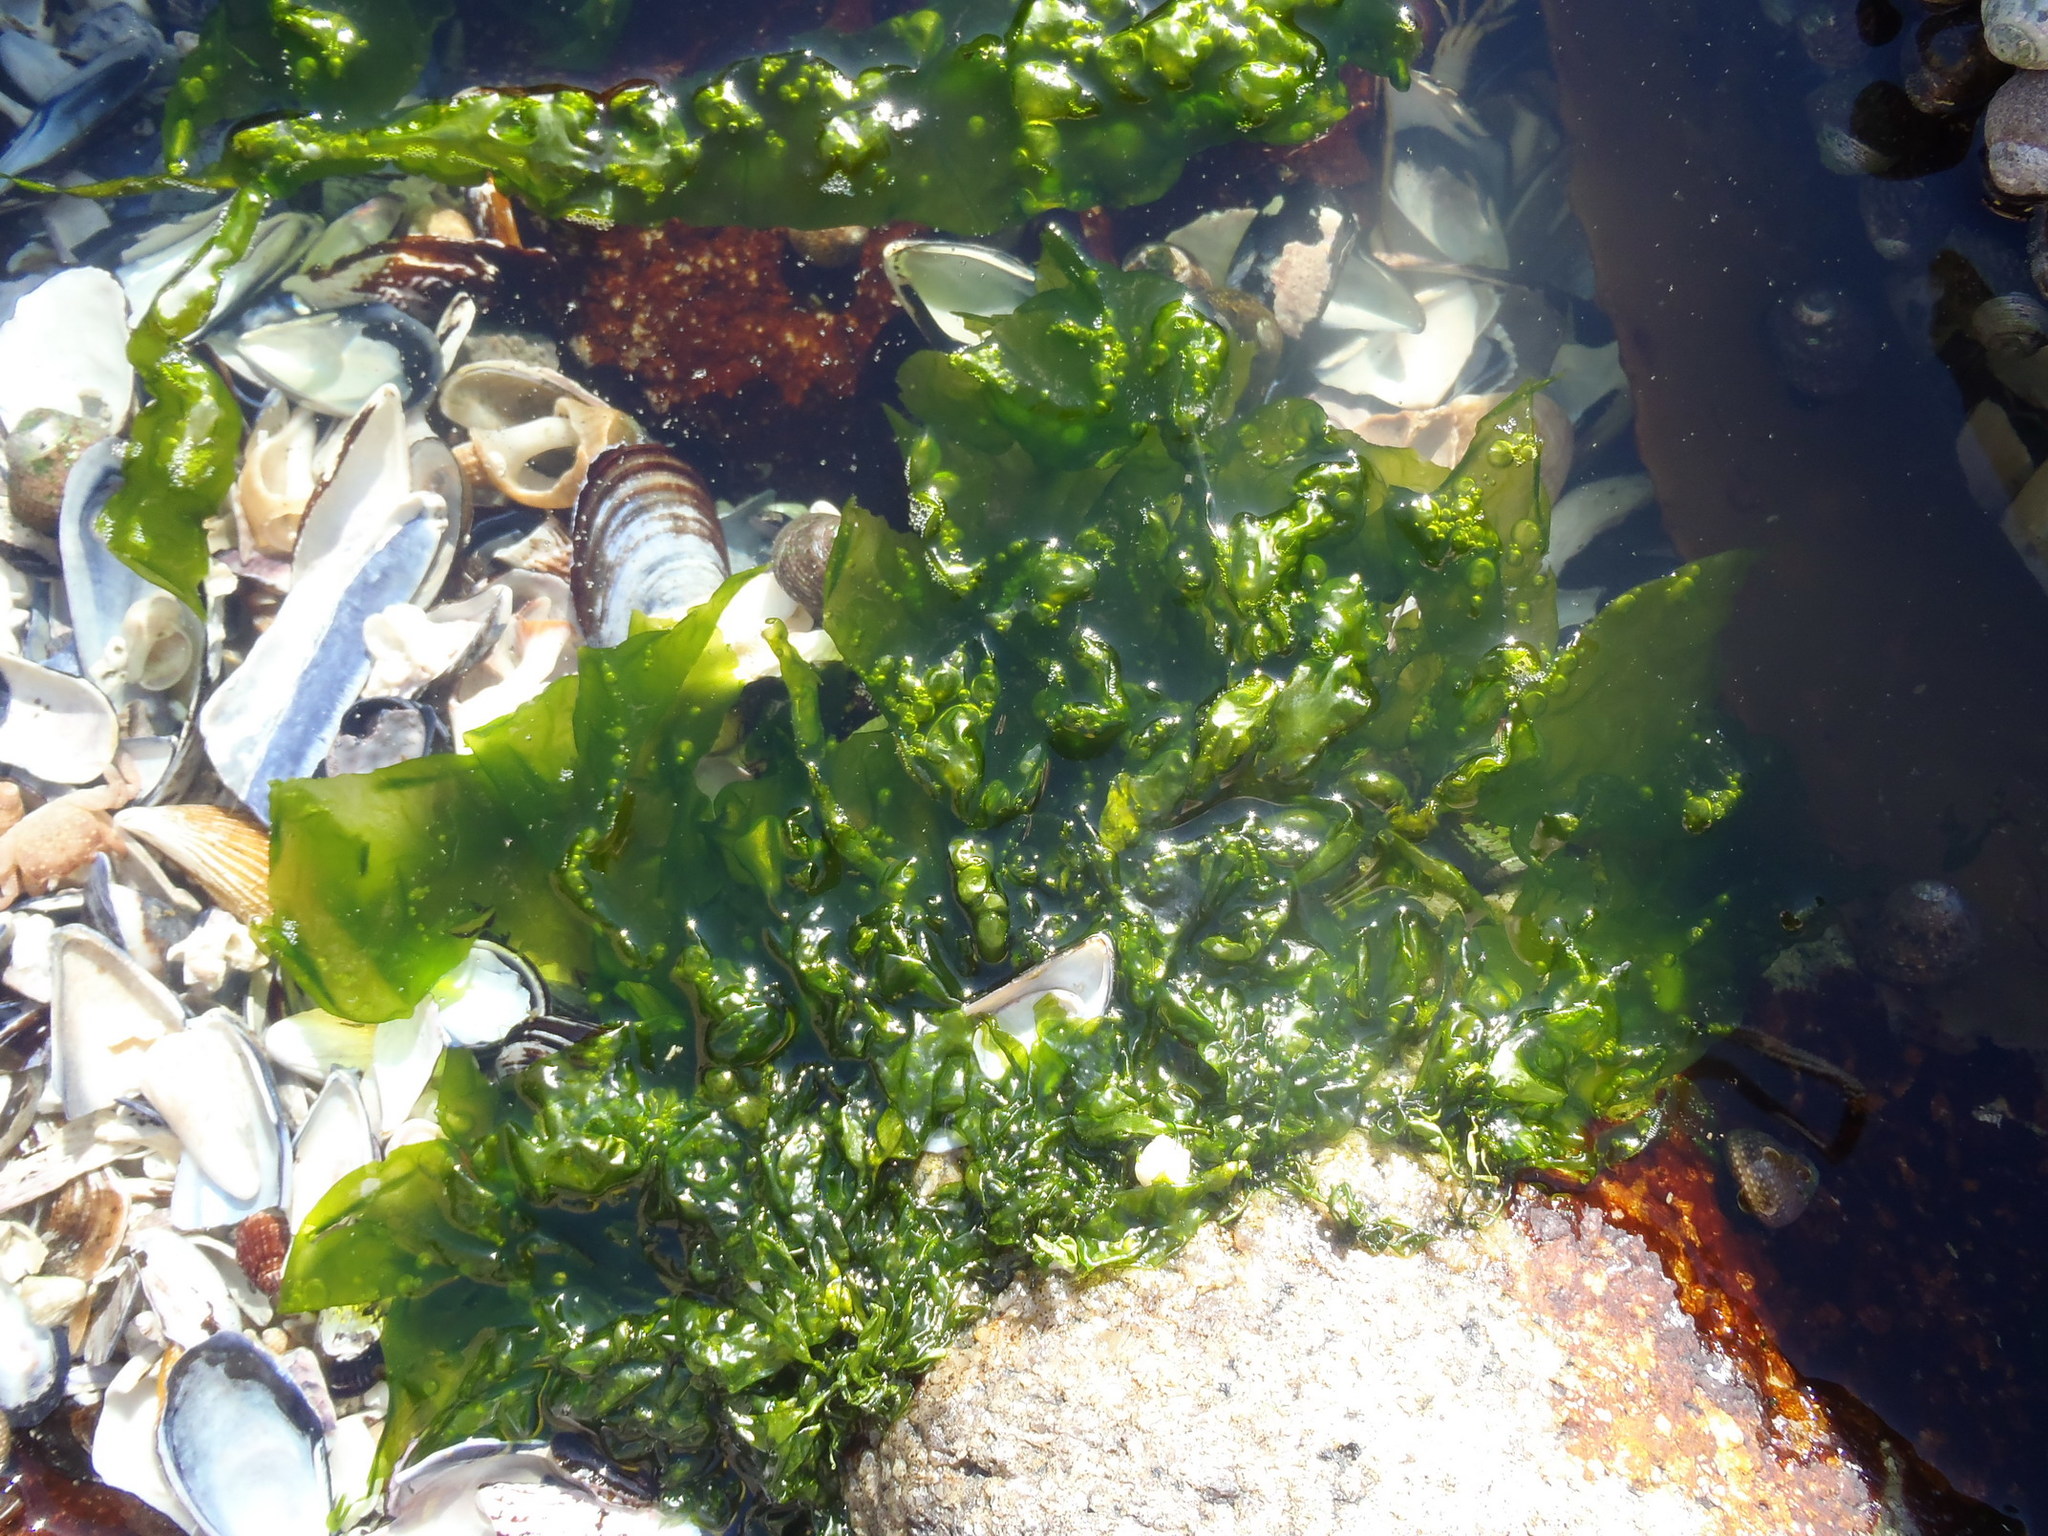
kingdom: Plantae
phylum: Chlorophyta
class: Ulvophyceae
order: Ulvales
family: Ulvaceae
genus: Ulva
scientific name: Ulva rigida
